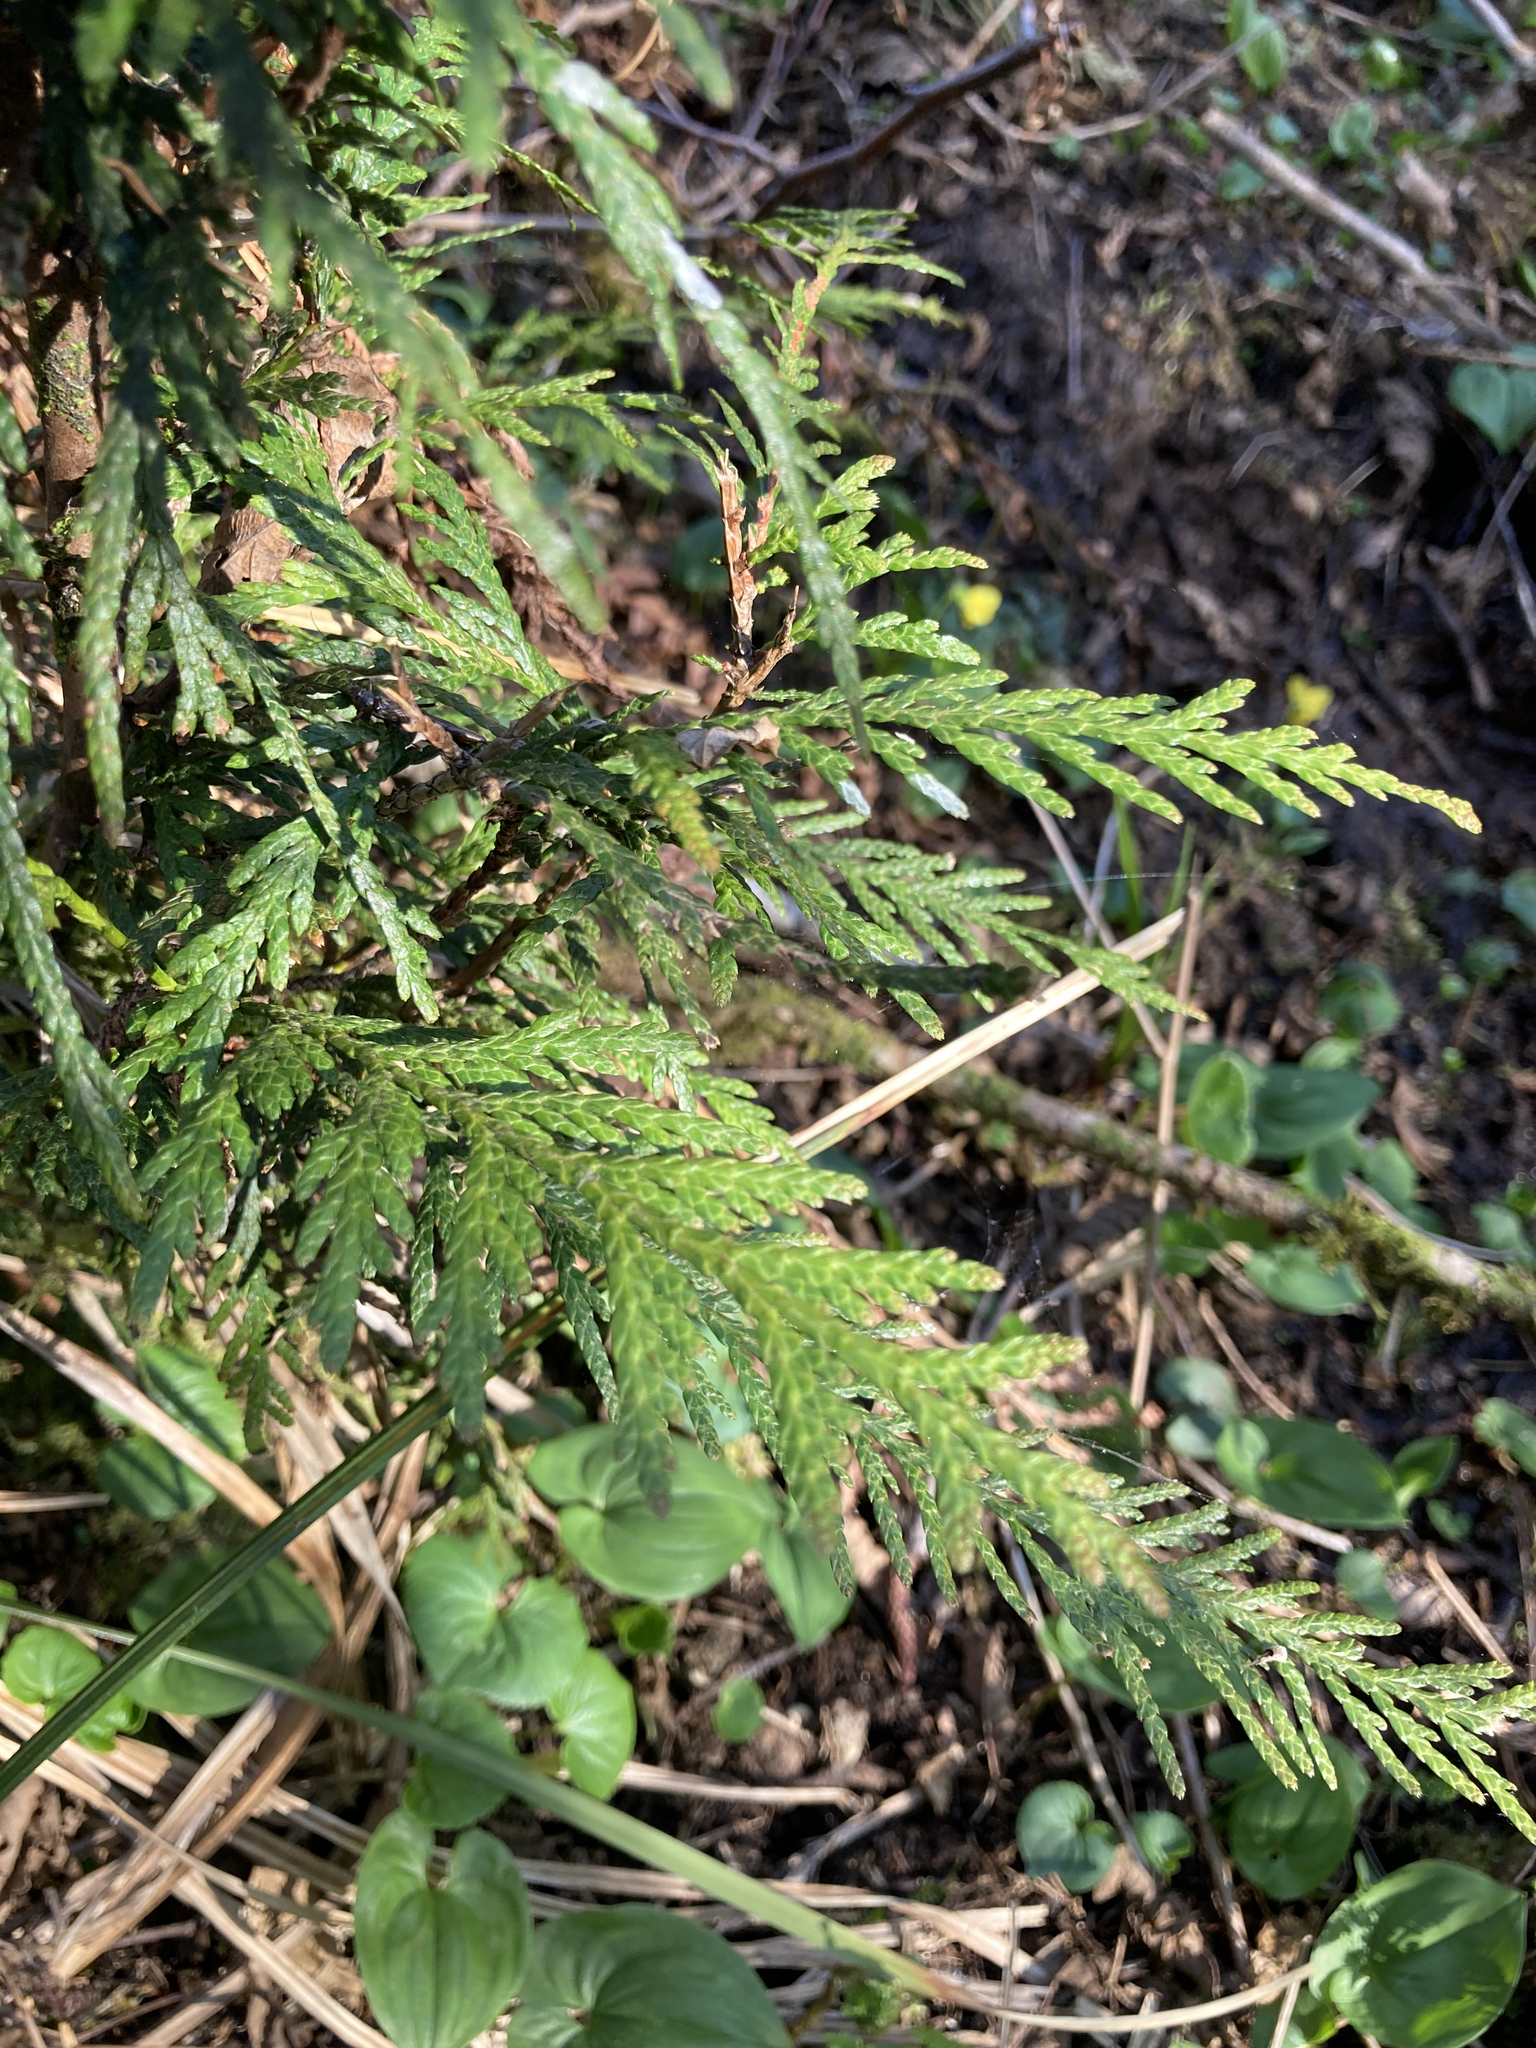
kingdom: Plantae
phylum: Tracheophyta
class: Pinopsida
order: Pinales
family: Cupressaceae
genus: Thuja
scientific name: Thuja plicata
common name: Western red-cedar
